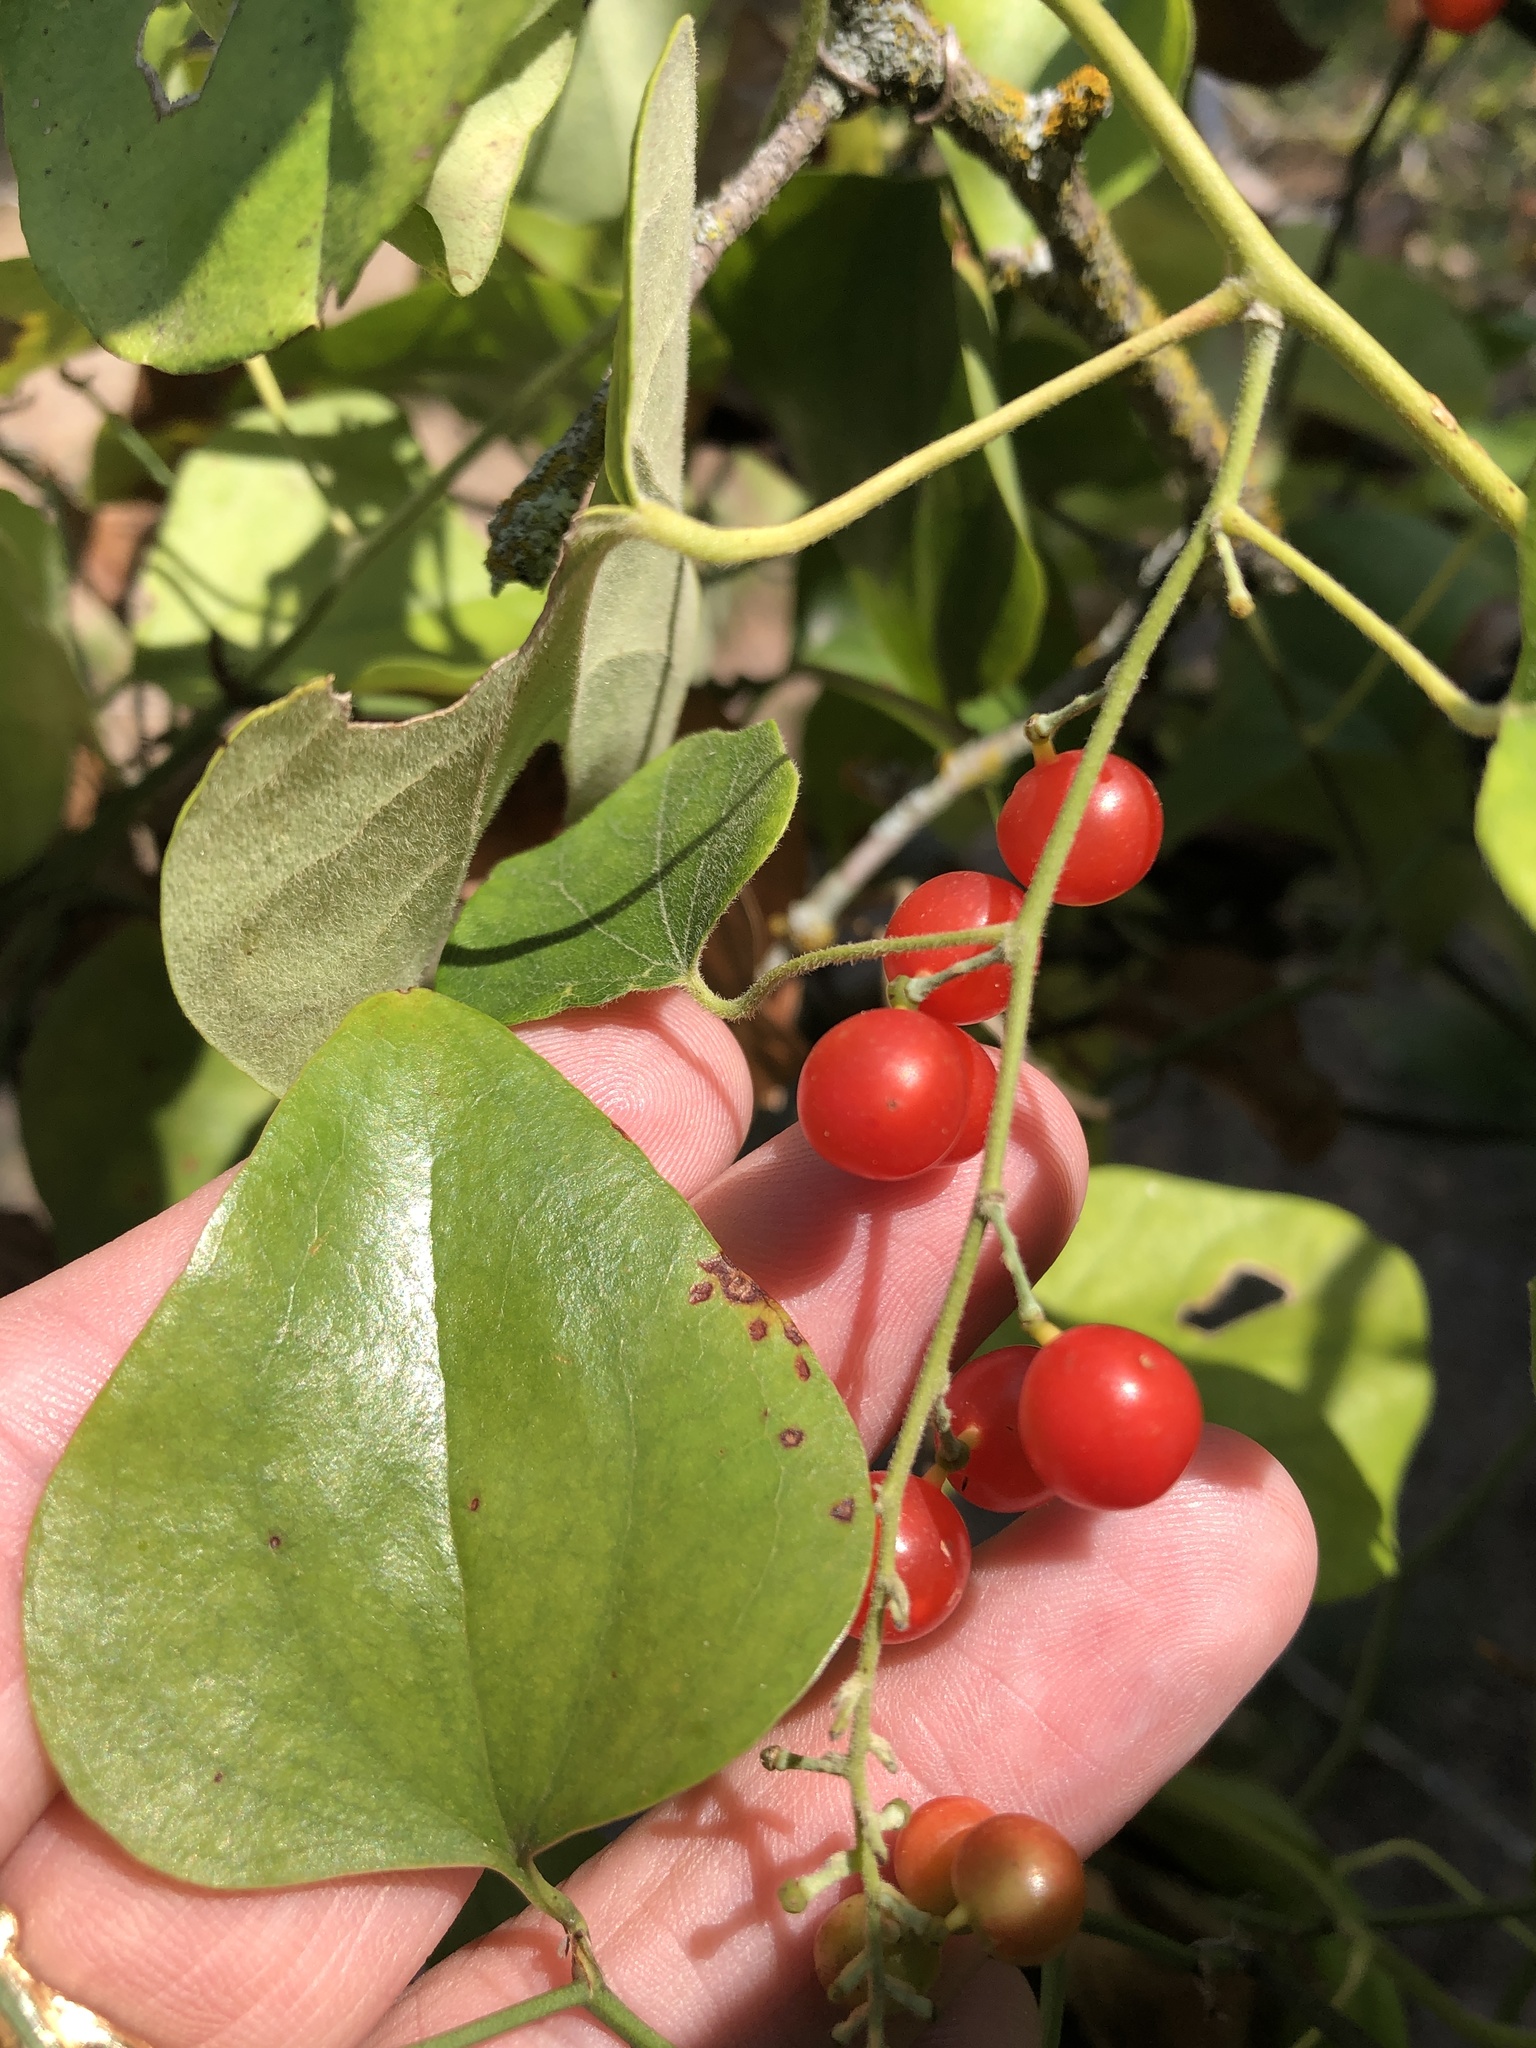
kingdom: Plantae
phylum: Tracheophyta
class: Magnoliopsida
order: Ranunculales
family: Menispermaceae
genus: Cocculus
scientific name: Cocculus carolinus
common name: Carolina moonseed
